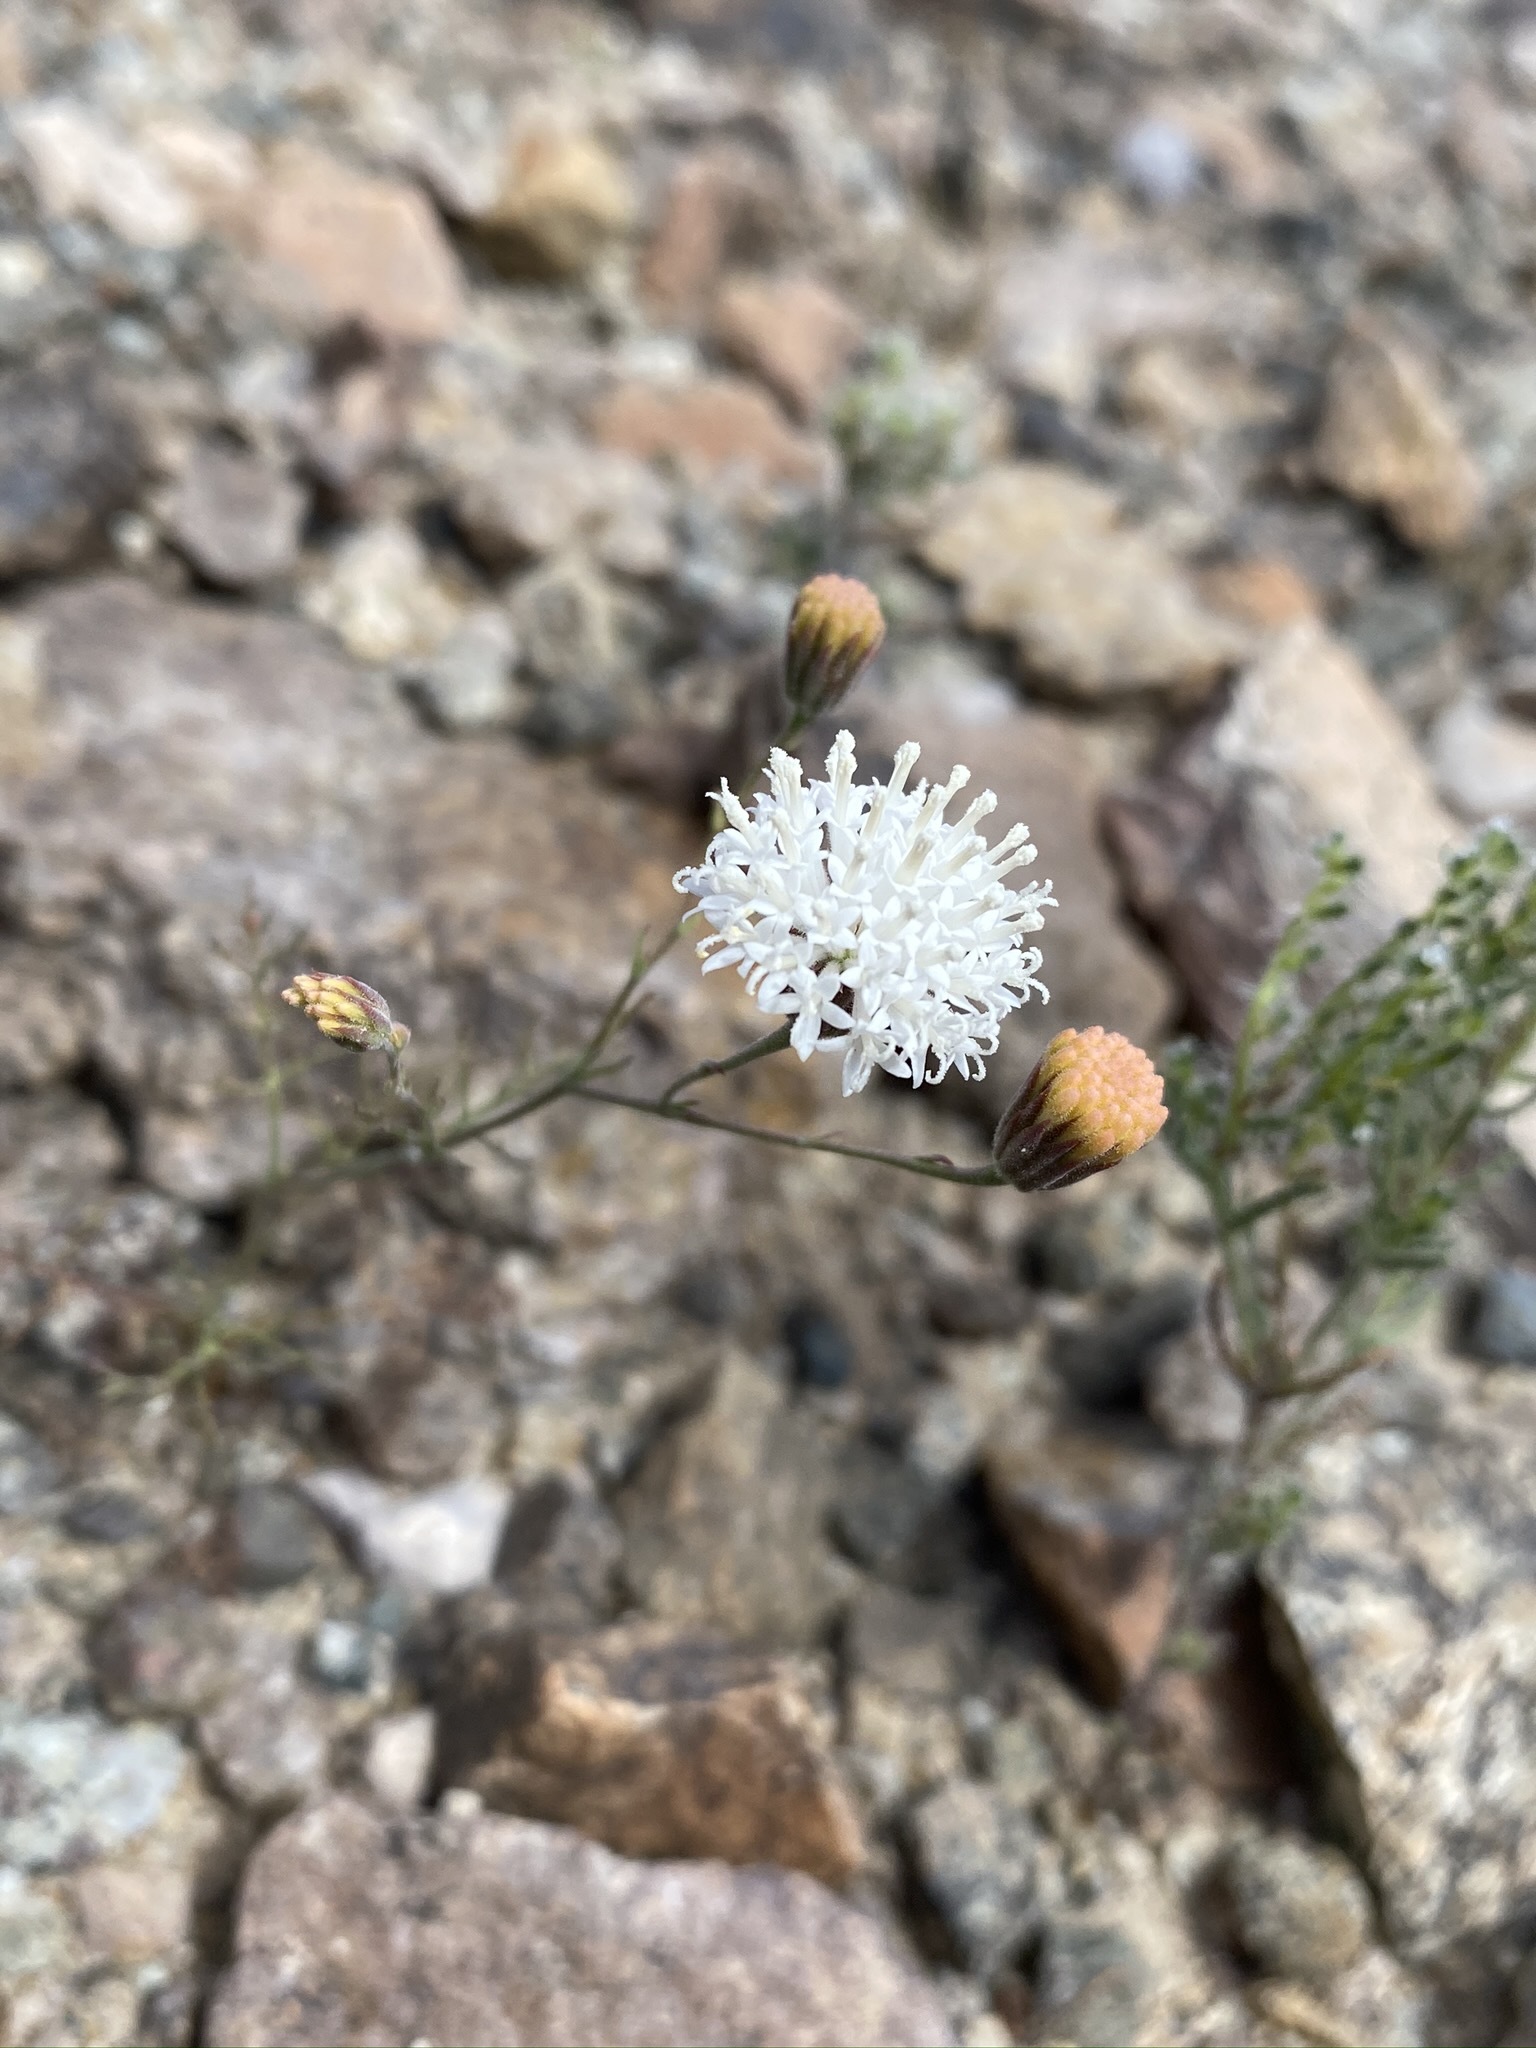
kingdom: Plantae
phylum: Tracheophyta
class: Magnoliopsida
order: Asterales
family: Asteraceae
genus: Chaenactis
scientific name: Chaenactis carphoclinia
